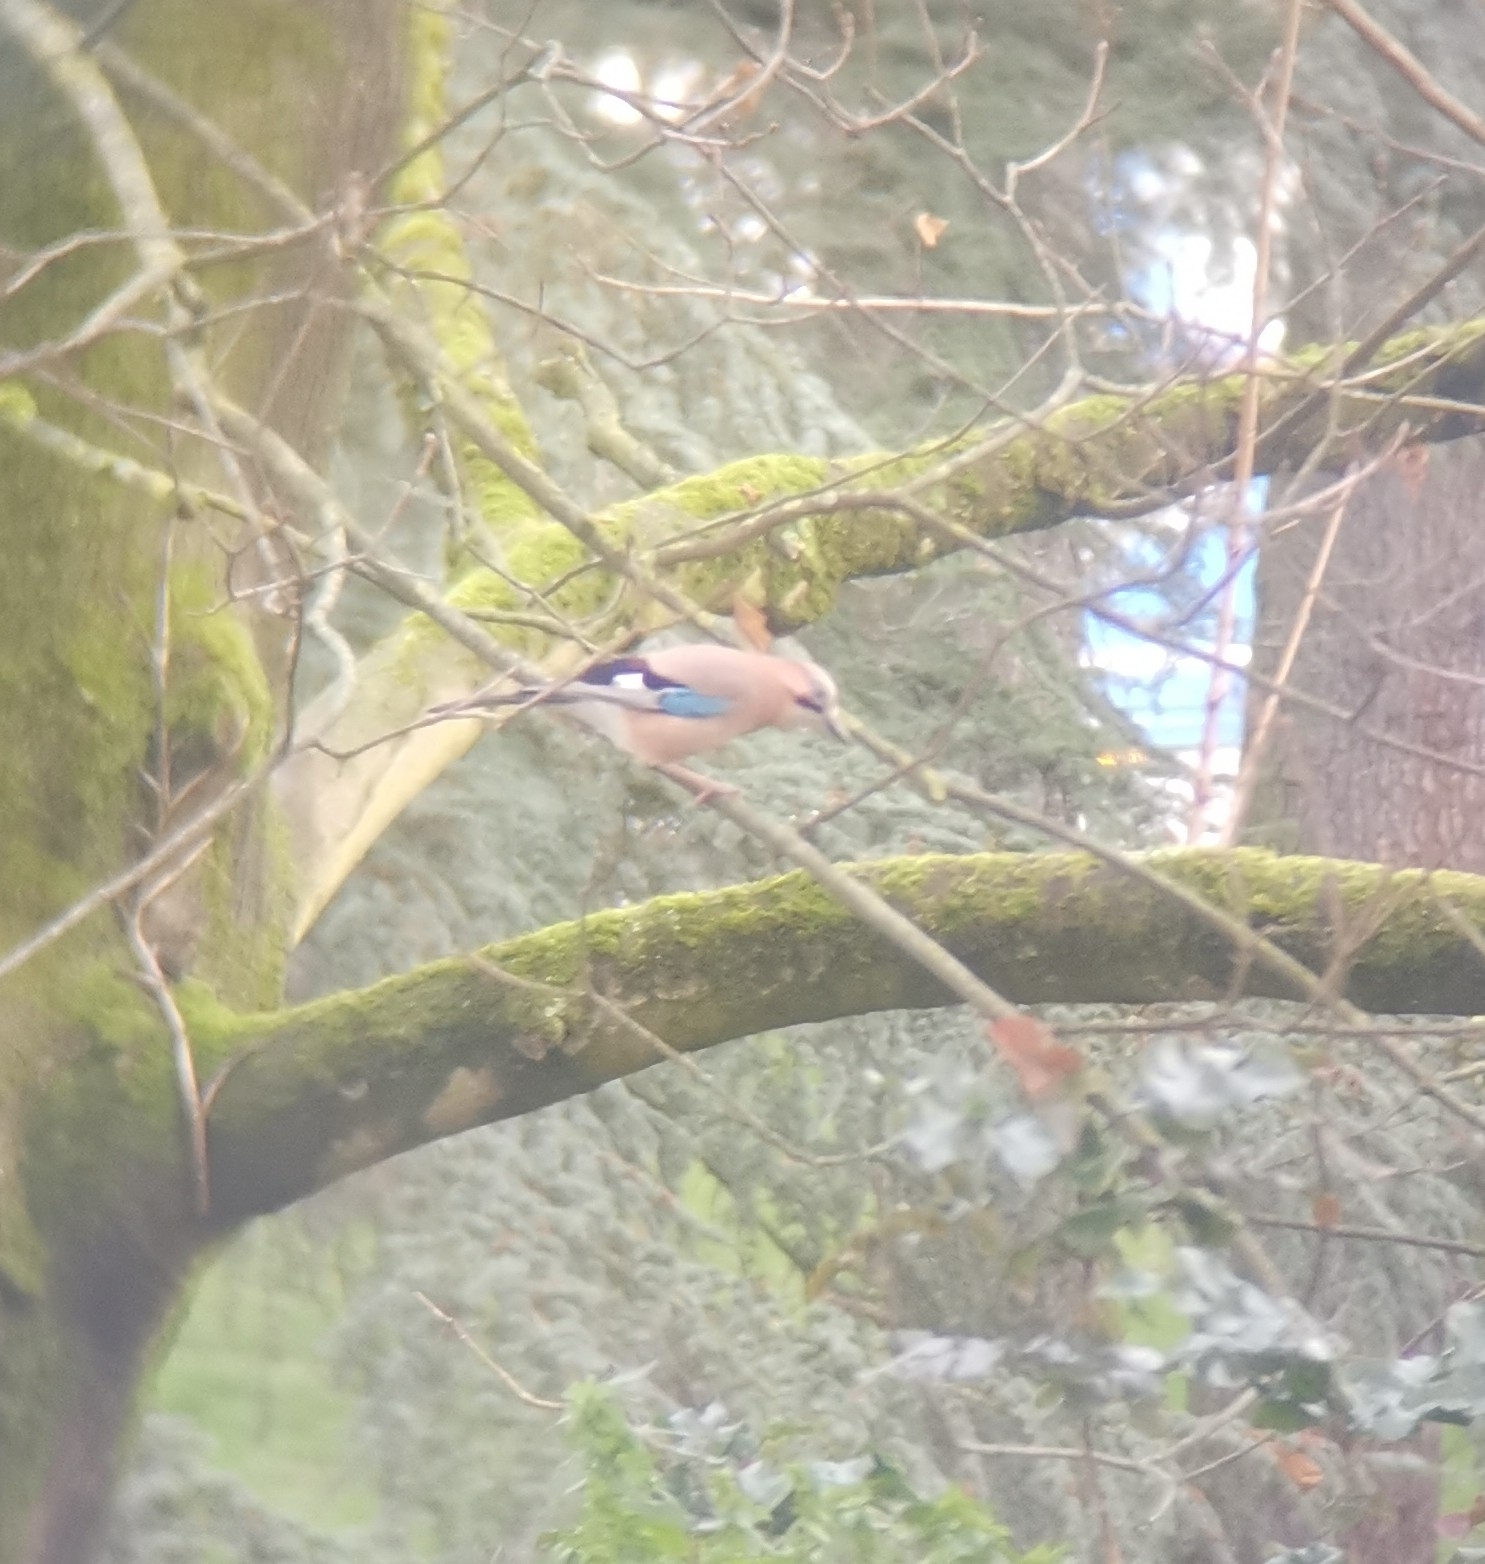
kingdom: Animalia
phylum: Chordata
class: Aves
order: Passeriformes
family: Corvidae
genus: Garrulus
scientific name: Garrulus glandarius
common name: Eurasian jay
